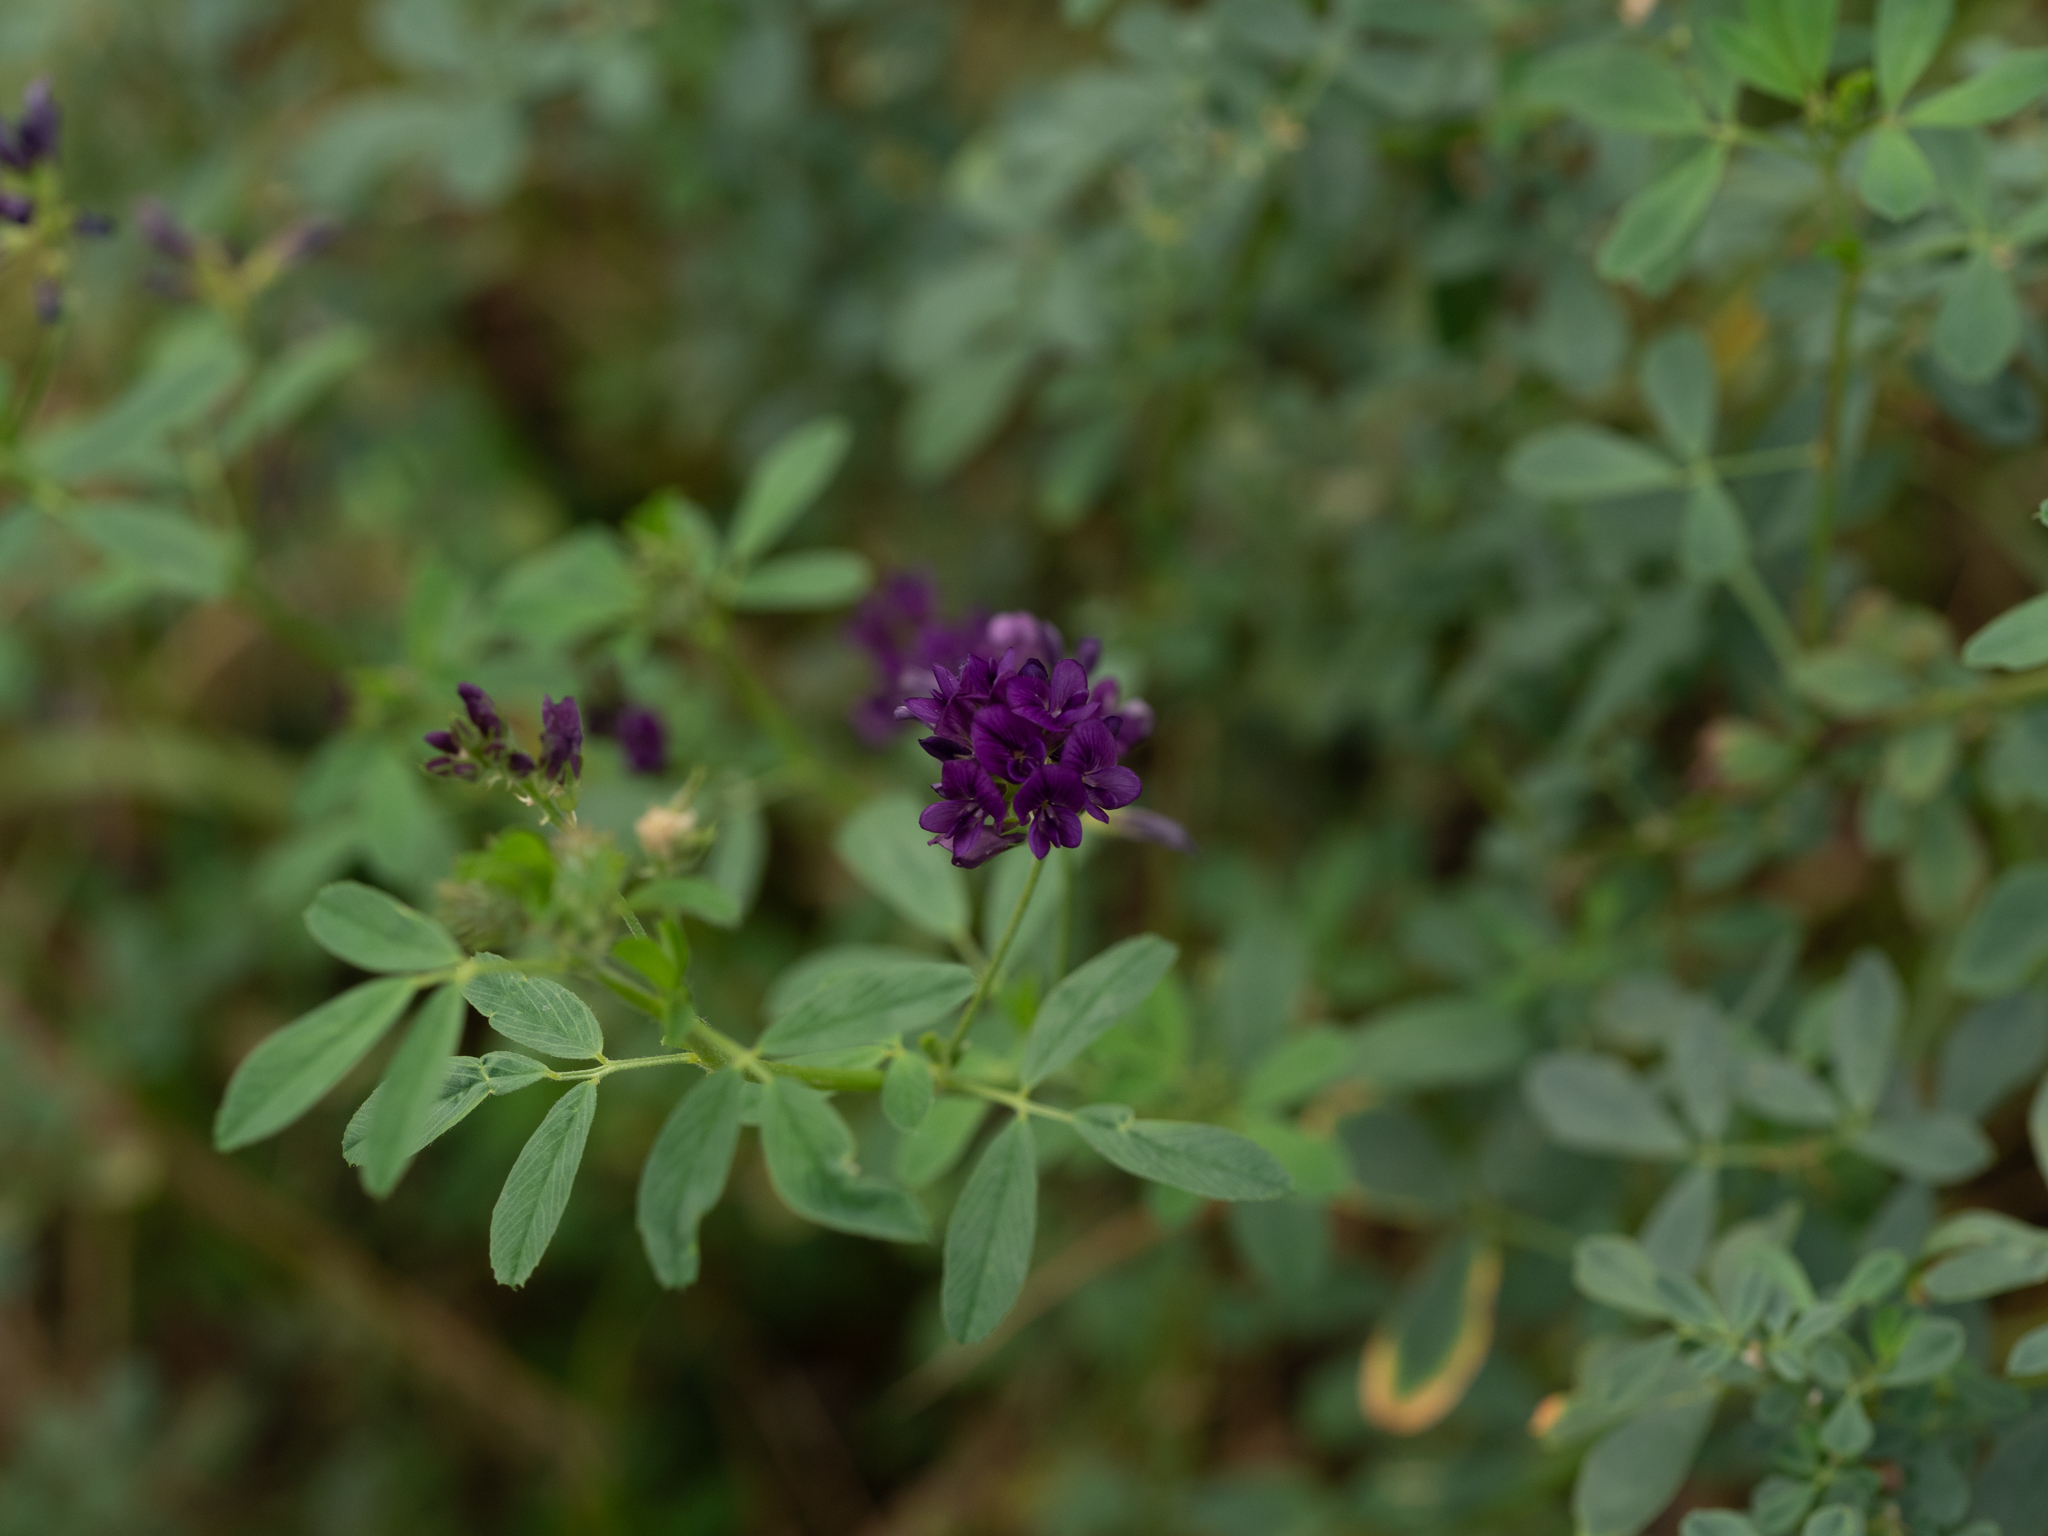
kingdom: Plantae
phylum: Tracheophyta
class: Magnoliopsida
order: Fabales
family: Fabaceae
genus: Medicago
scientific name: Medicago sativa
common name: Alfalfa
